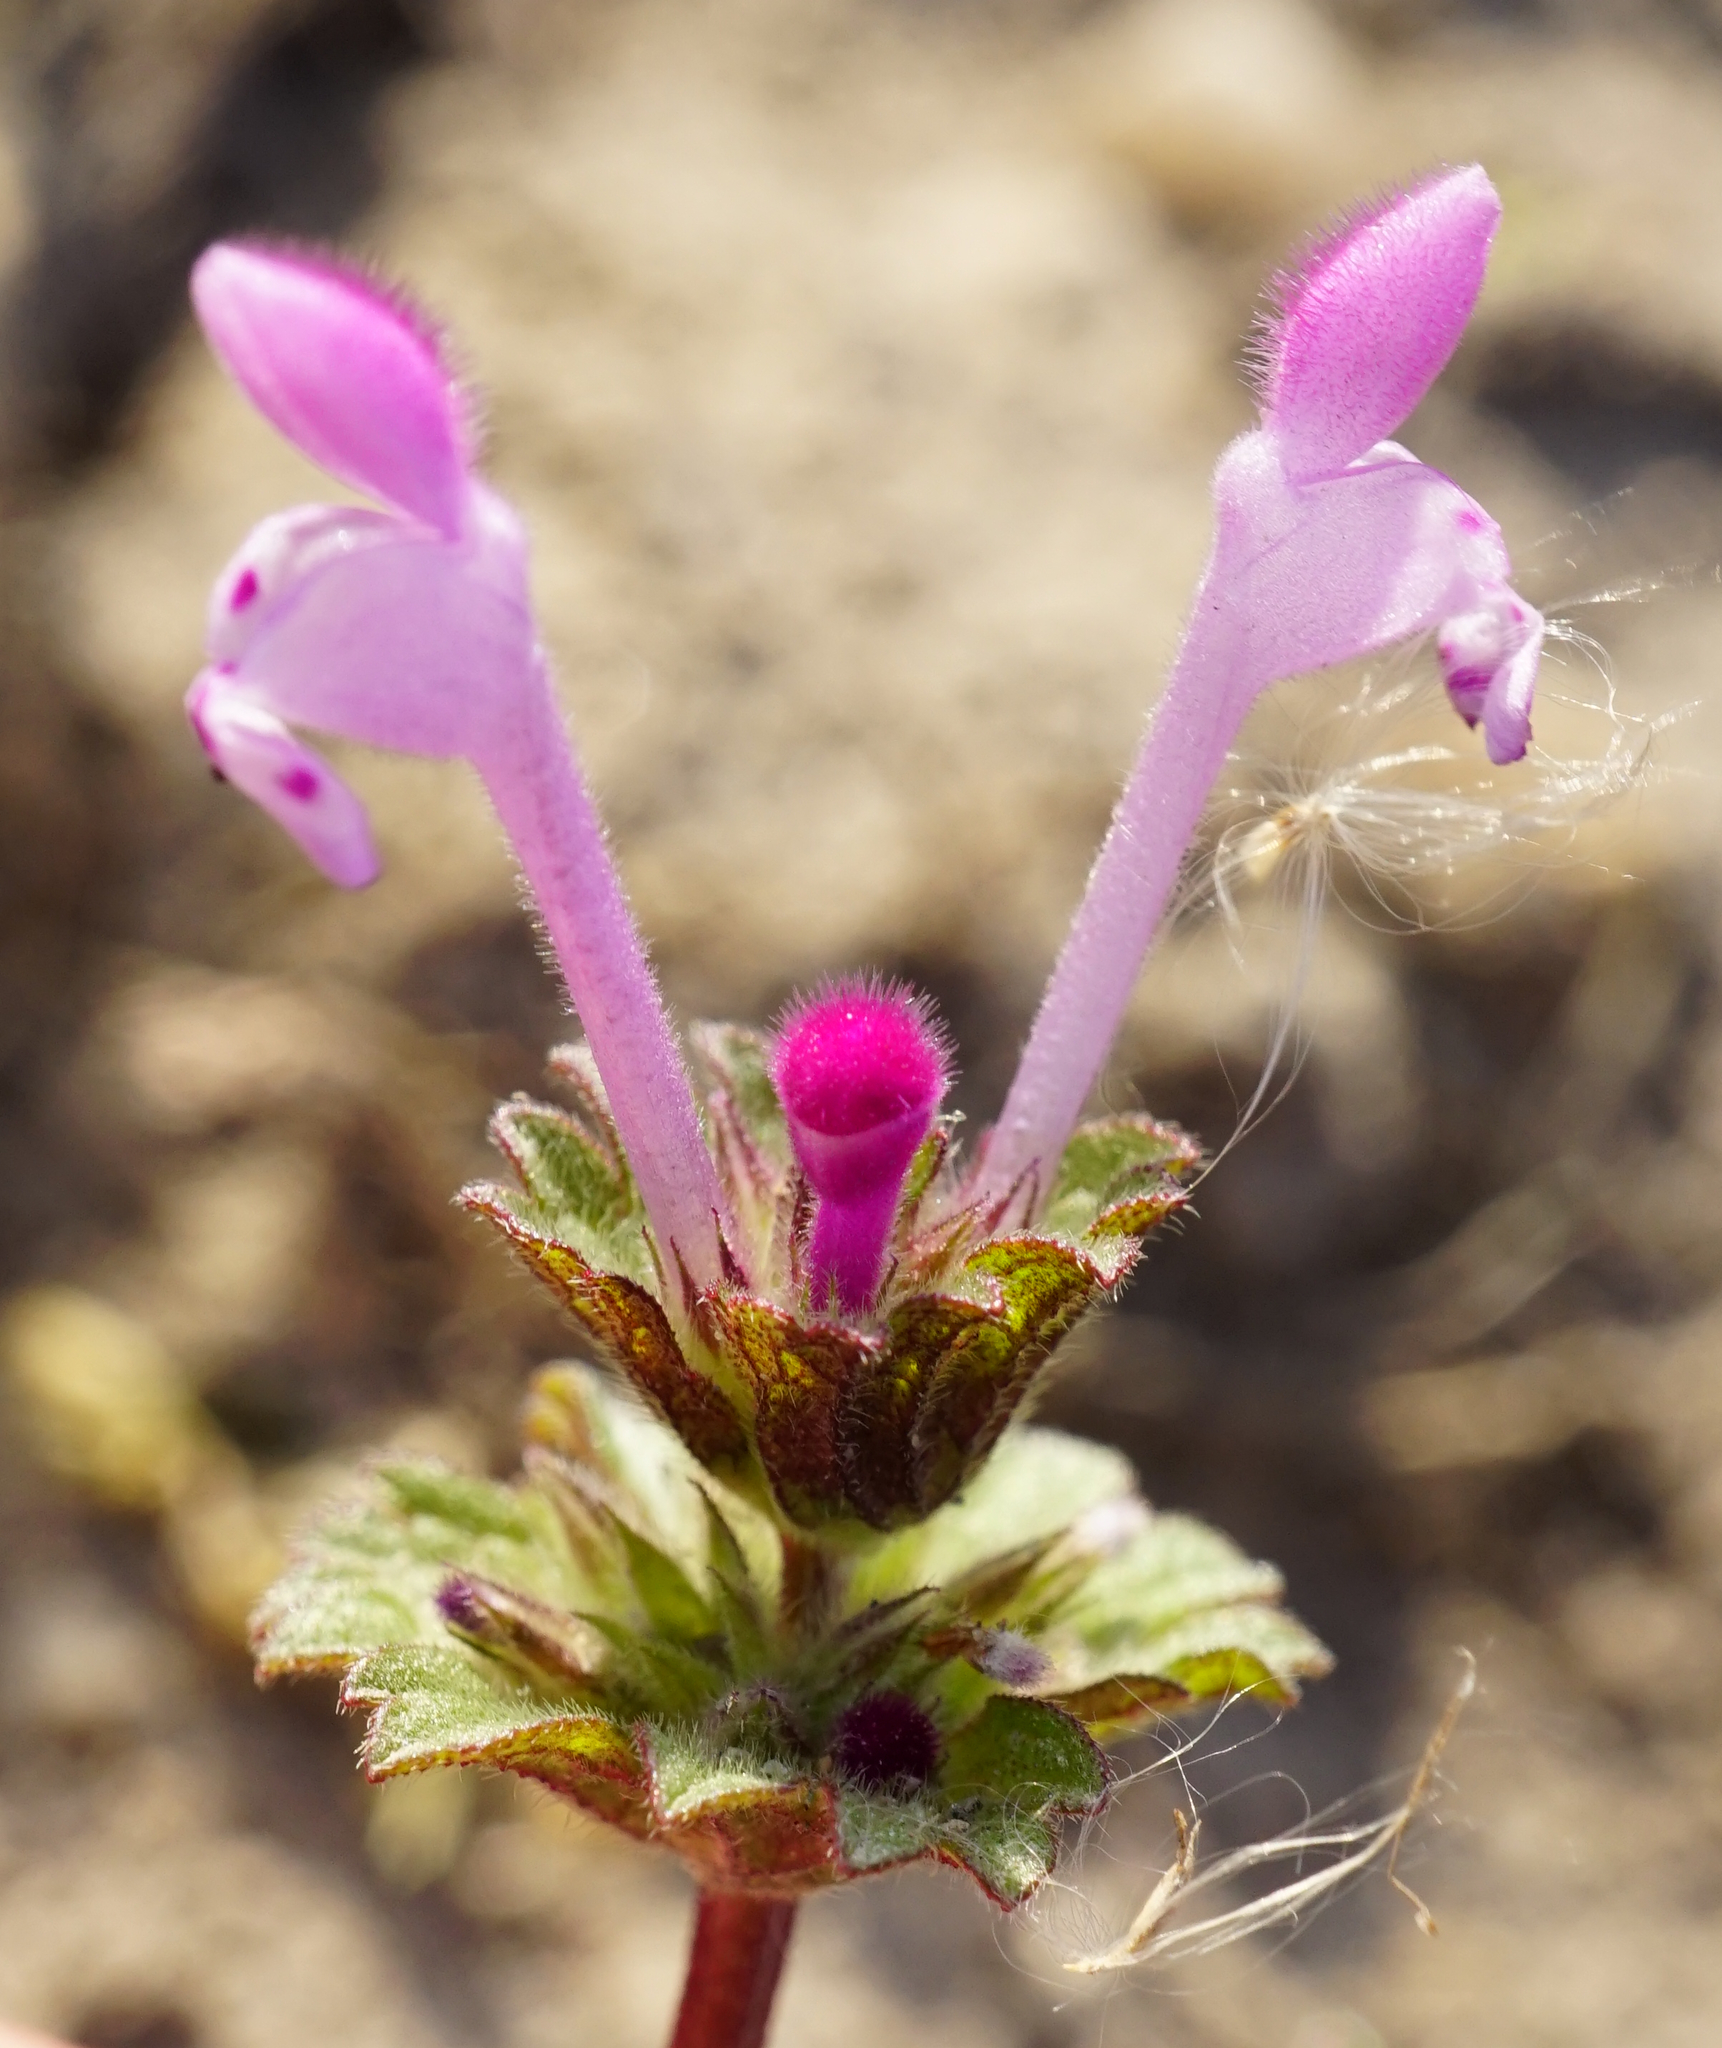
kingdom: Plantae
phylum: Tracheophyta
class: Magnoliopsida
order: Lamiales
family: Lamiaceae
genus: Lamium
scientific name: Lamium amplexicaule
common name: Henbit dead-nettle
